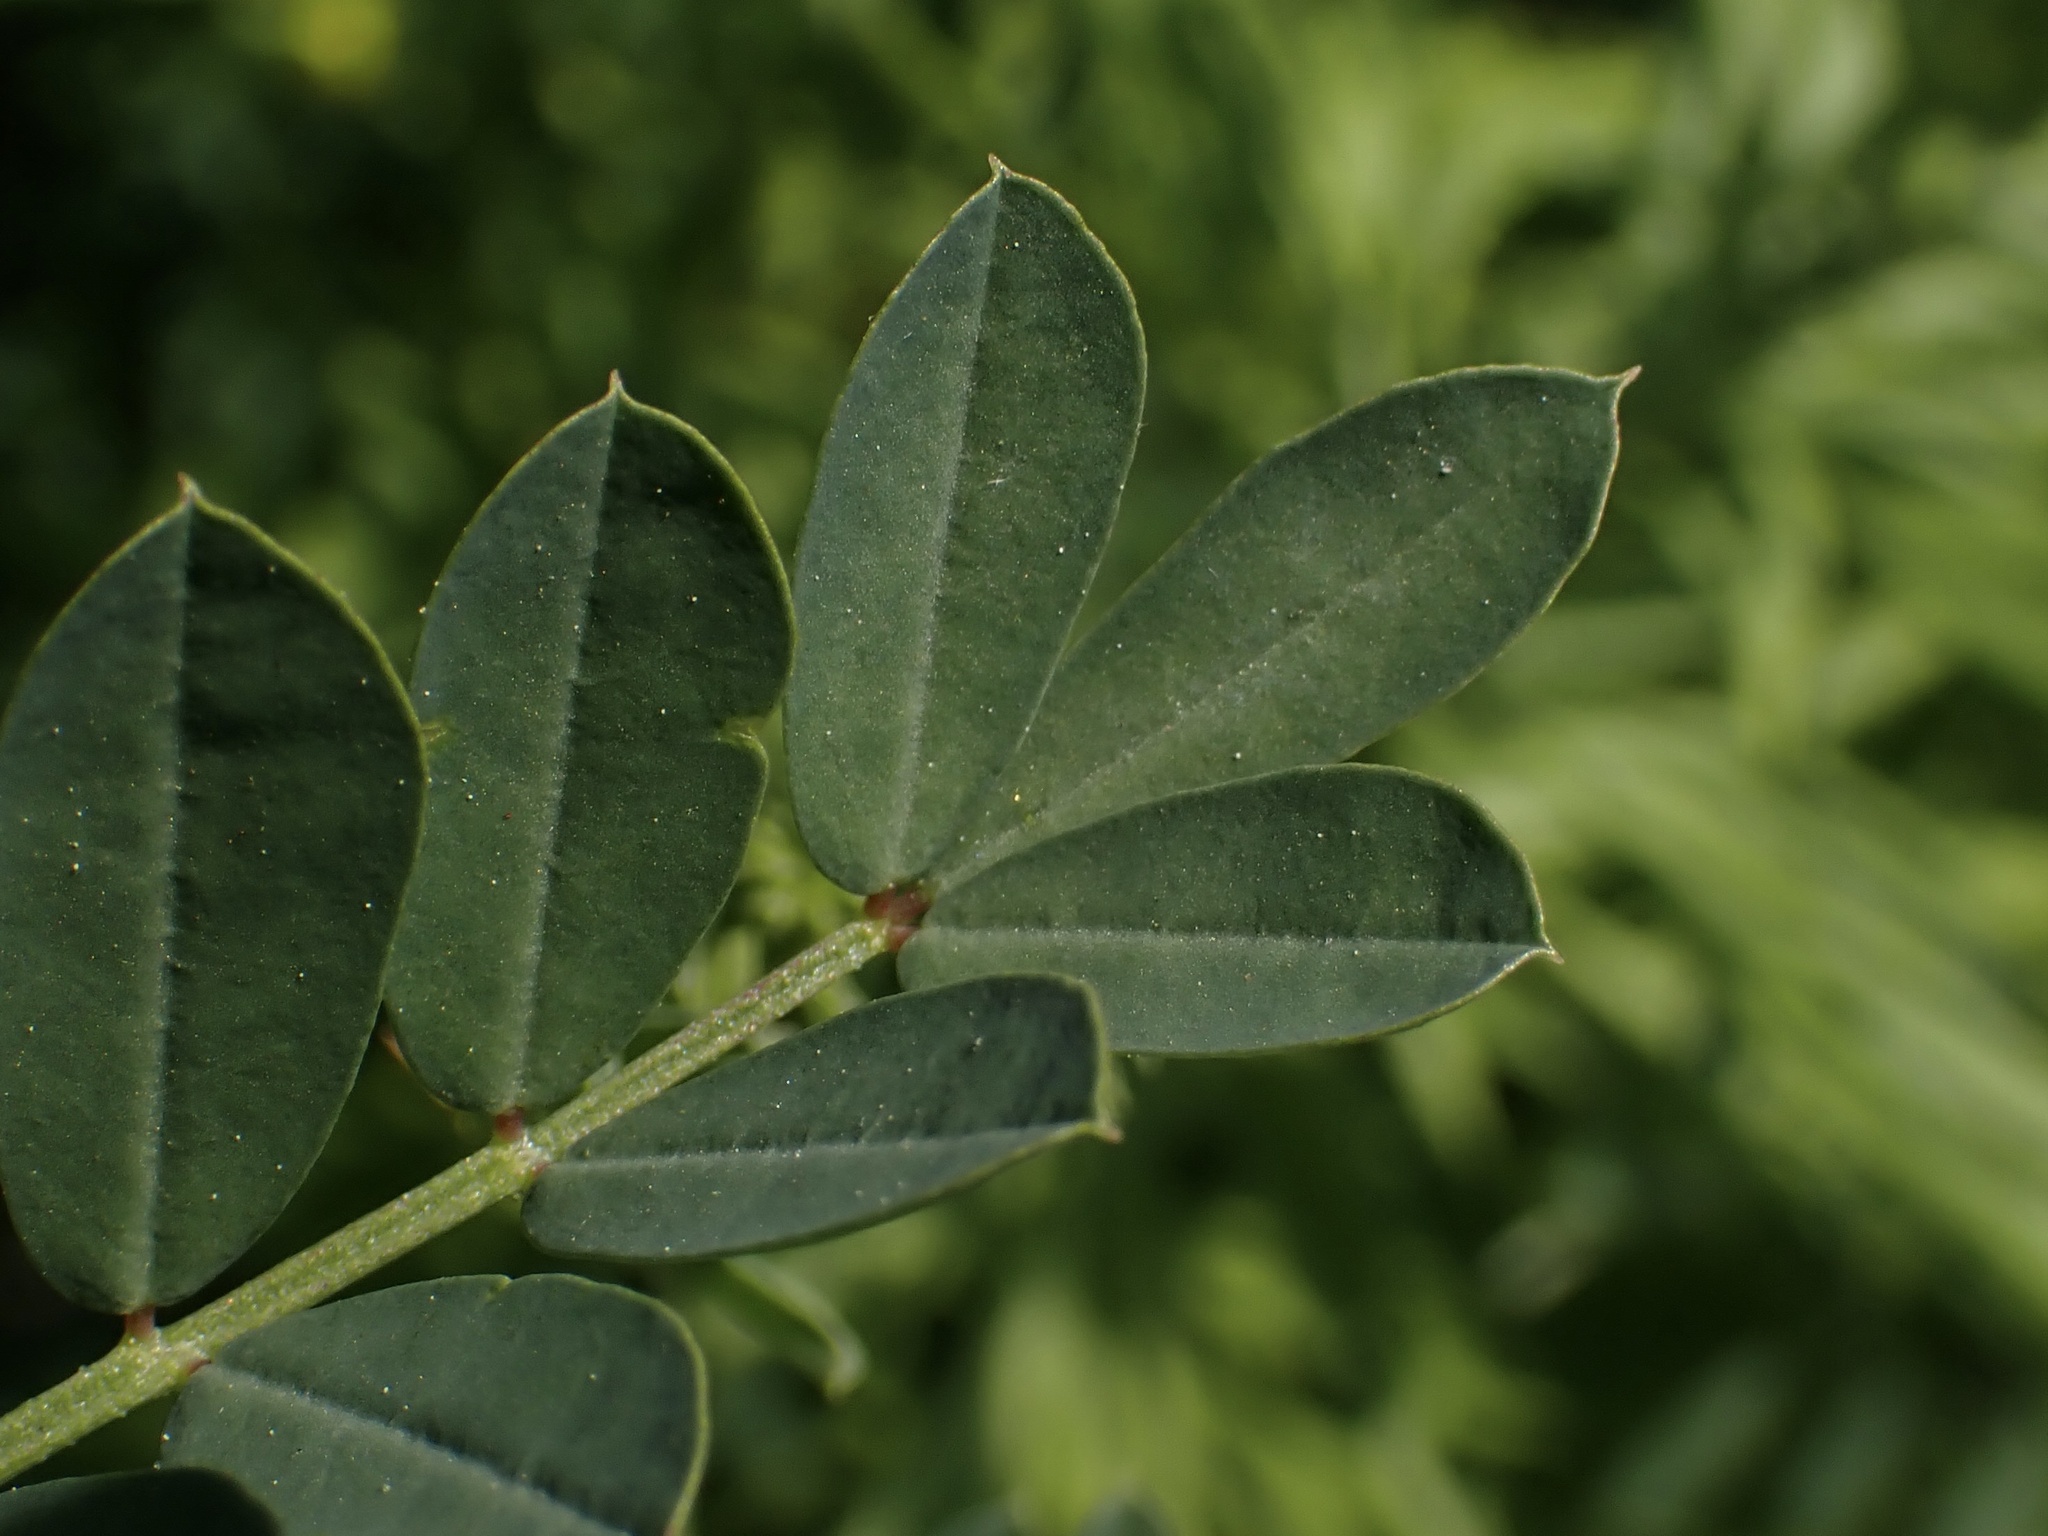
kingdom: Plantae
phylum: Tracheophyta
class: Magnoliopsida
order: Fabales
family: Fabaceae
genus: Coronilla
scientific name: Coronilla varia
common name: Crownvetch
